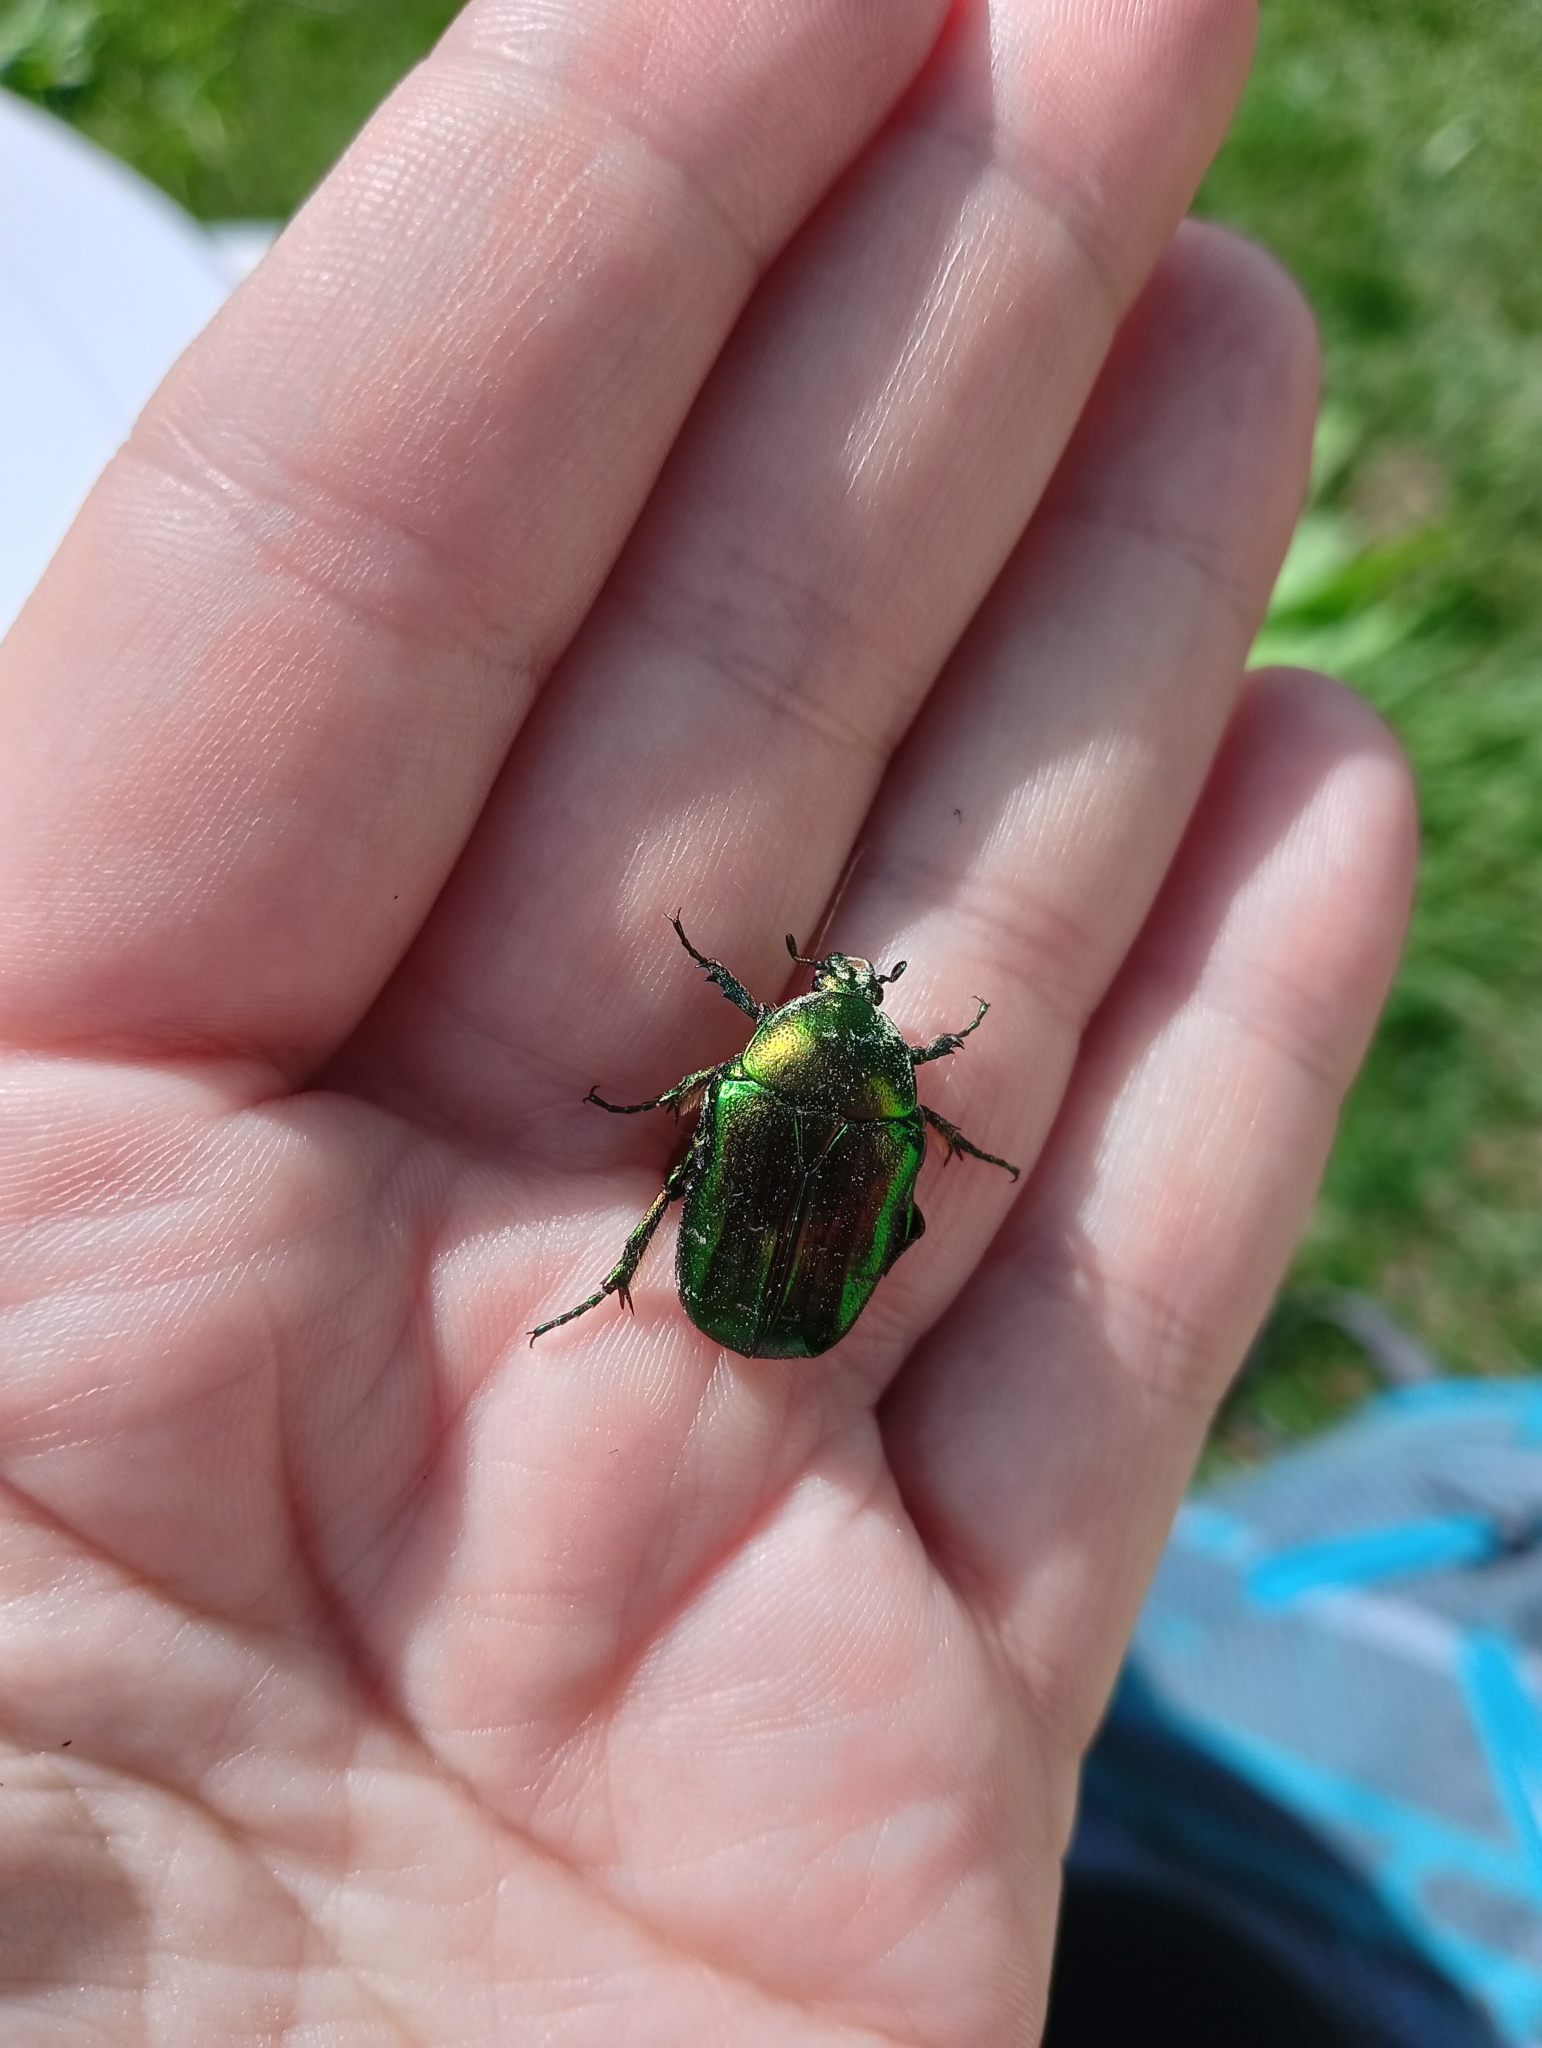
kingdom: Animalia
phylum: Arthropoda
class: Insecta
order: Coleoptera
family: Scarabaeidae
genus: Cetonia
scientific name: Cetonia aurata
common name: Rose chafer
